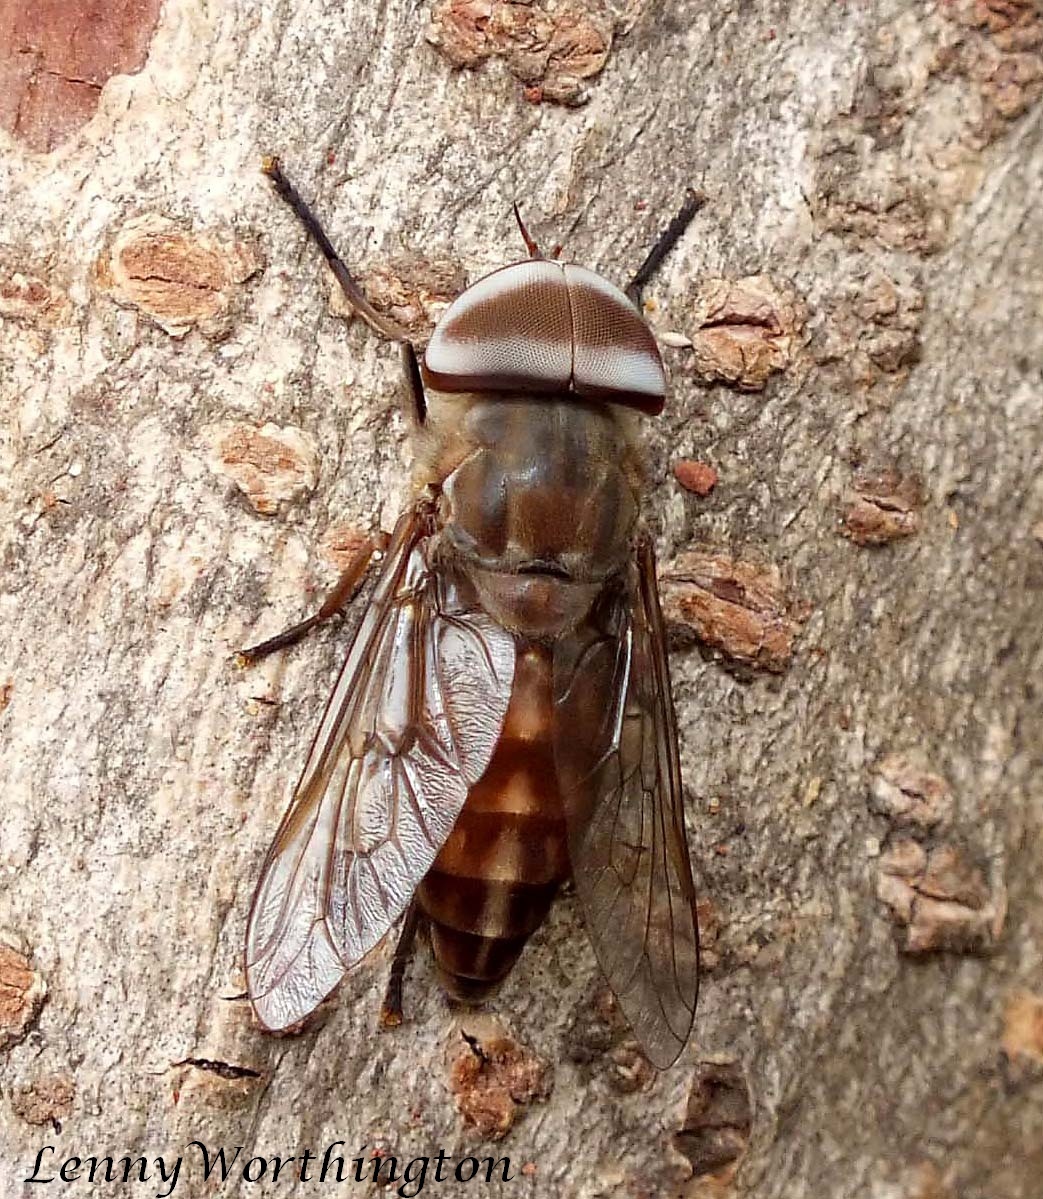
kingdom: Animalia
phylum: Arthropoda
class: Insecta
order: Diptera
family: Tabanidae
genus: Tabanus
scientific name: Tabanus rubidus
